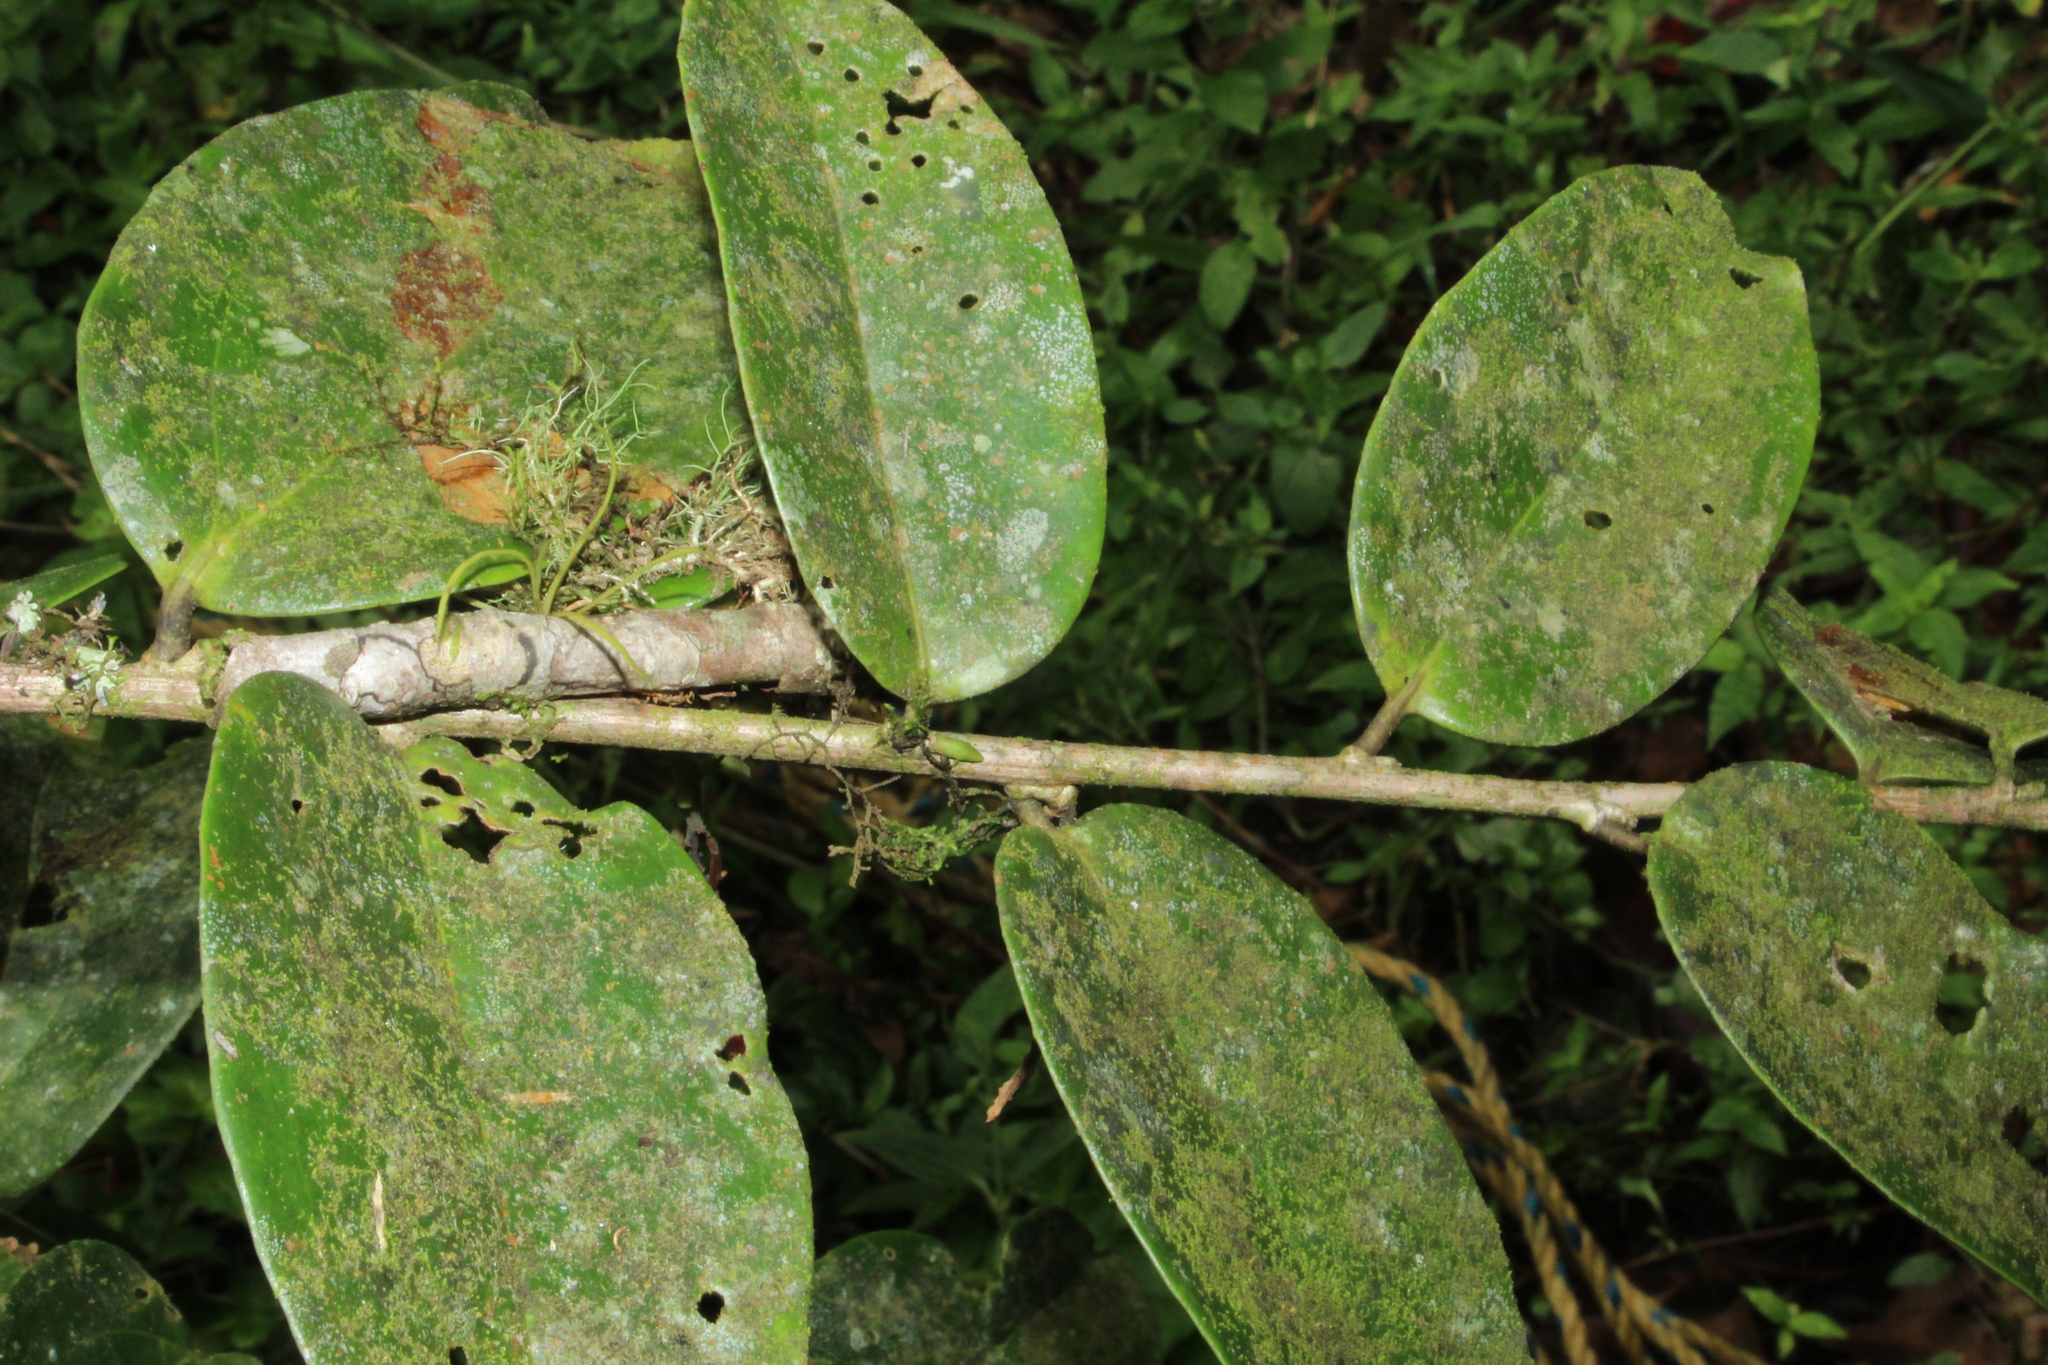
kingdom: Plantae
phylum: Tracheophyta
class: Magnoliopsida
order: Ericales
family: Ericaceae
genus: Satyria
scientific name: Satyria panurensis
